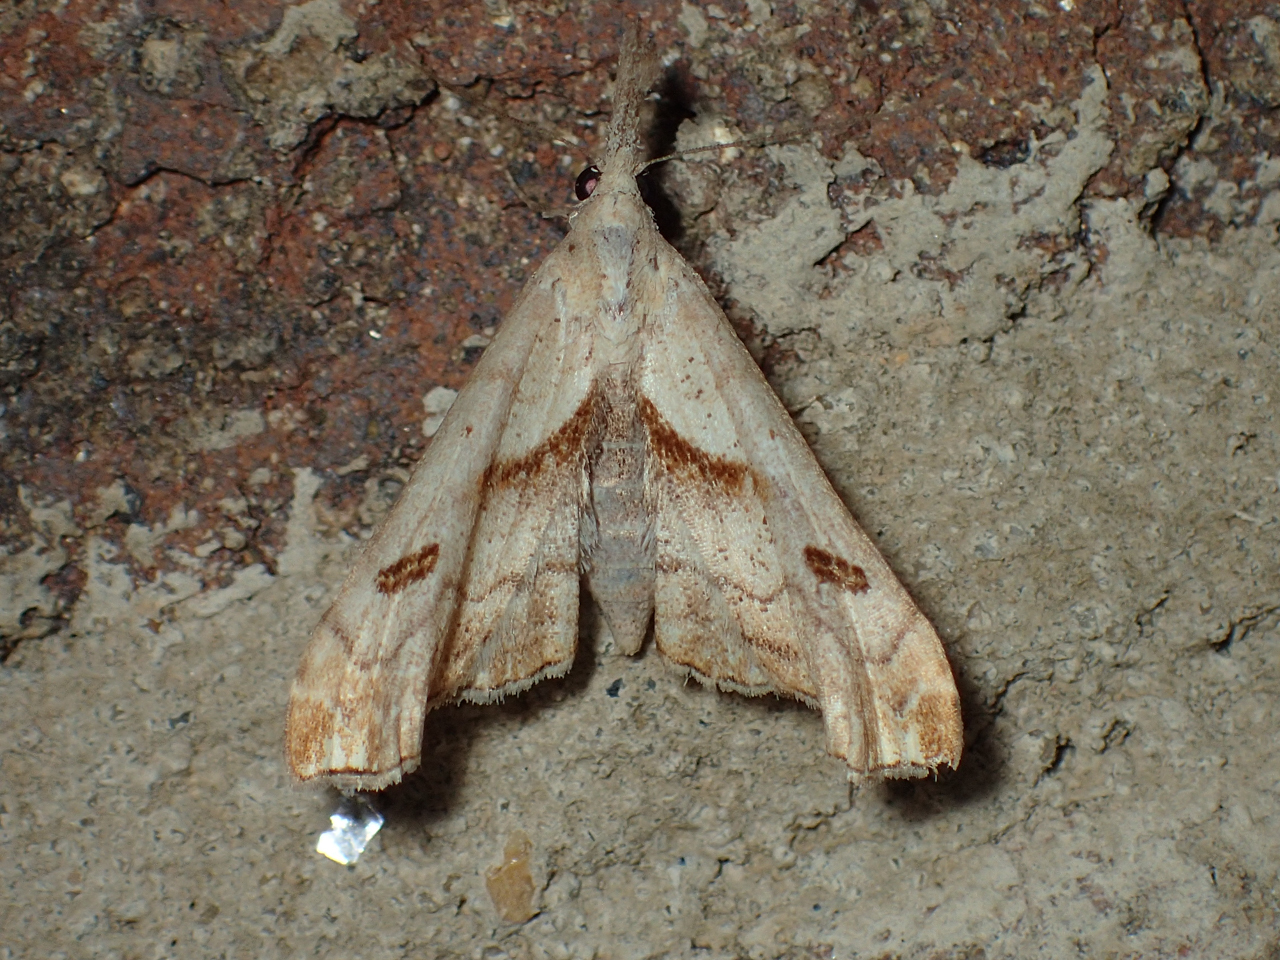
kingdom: Animalia
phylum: Arthropoda
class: Insecta
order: Lepidoptera
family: Erebidae
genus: Palthis
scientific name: Palthis angulalis
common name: Dark-spotted palthis moth
